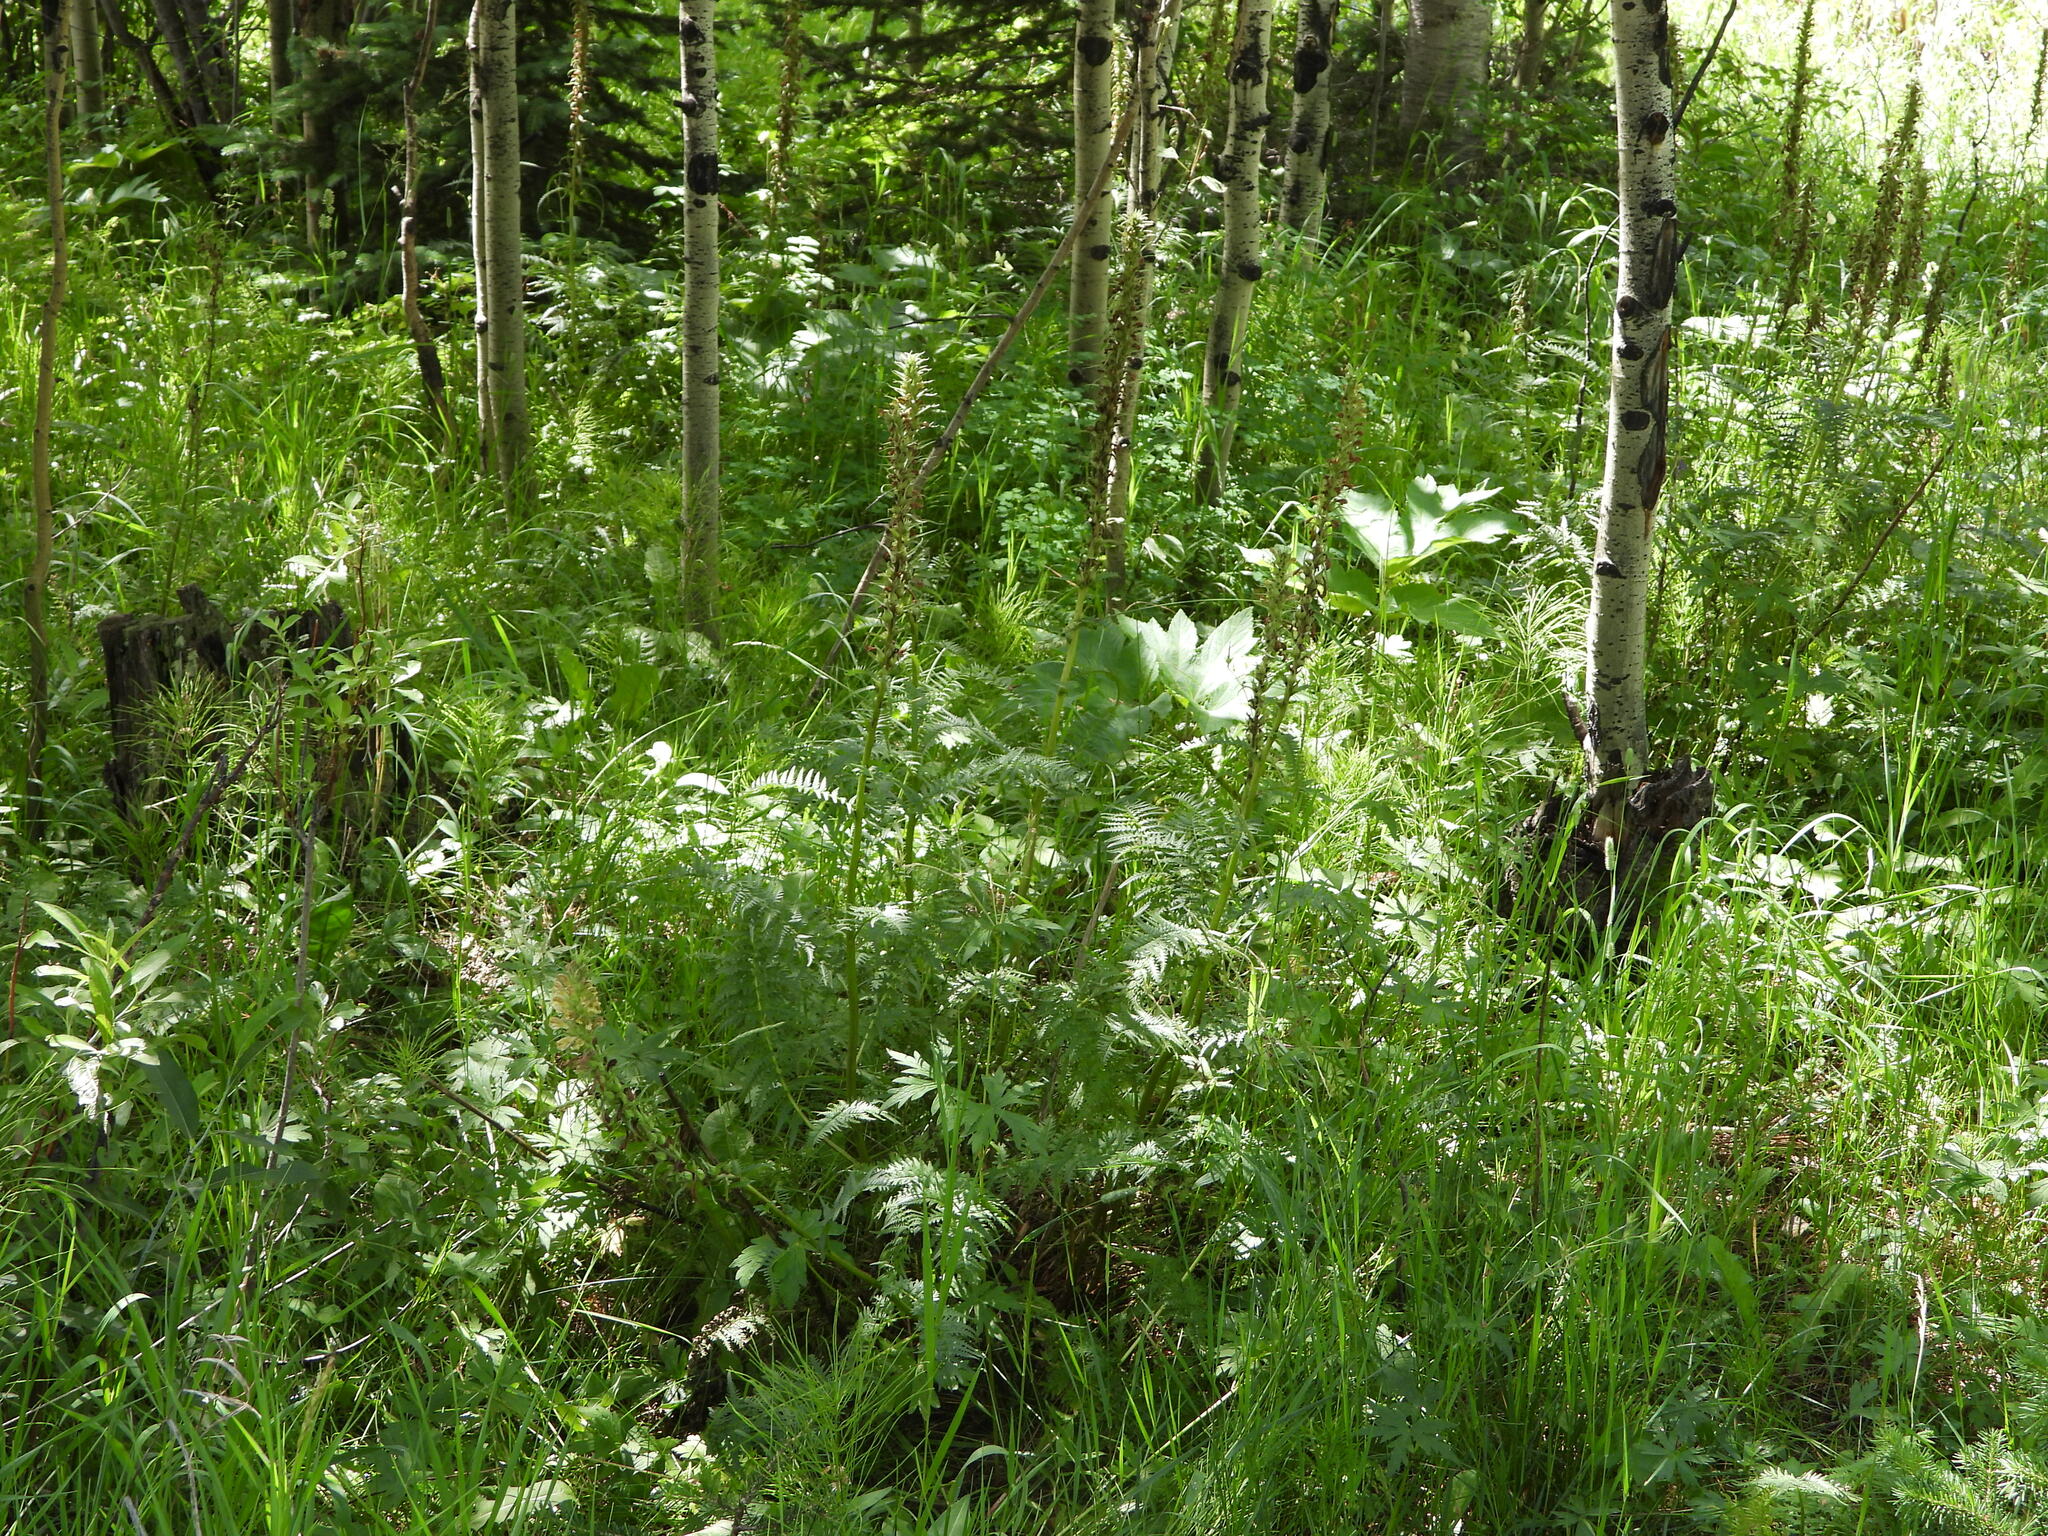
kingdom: Plantae
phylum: Tracheophyta
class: Magnoliopsida
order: Lamiales
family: Orobanchaceae
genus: Pedicularis
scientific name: Pedicularis procera
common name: Gray's lousewort
